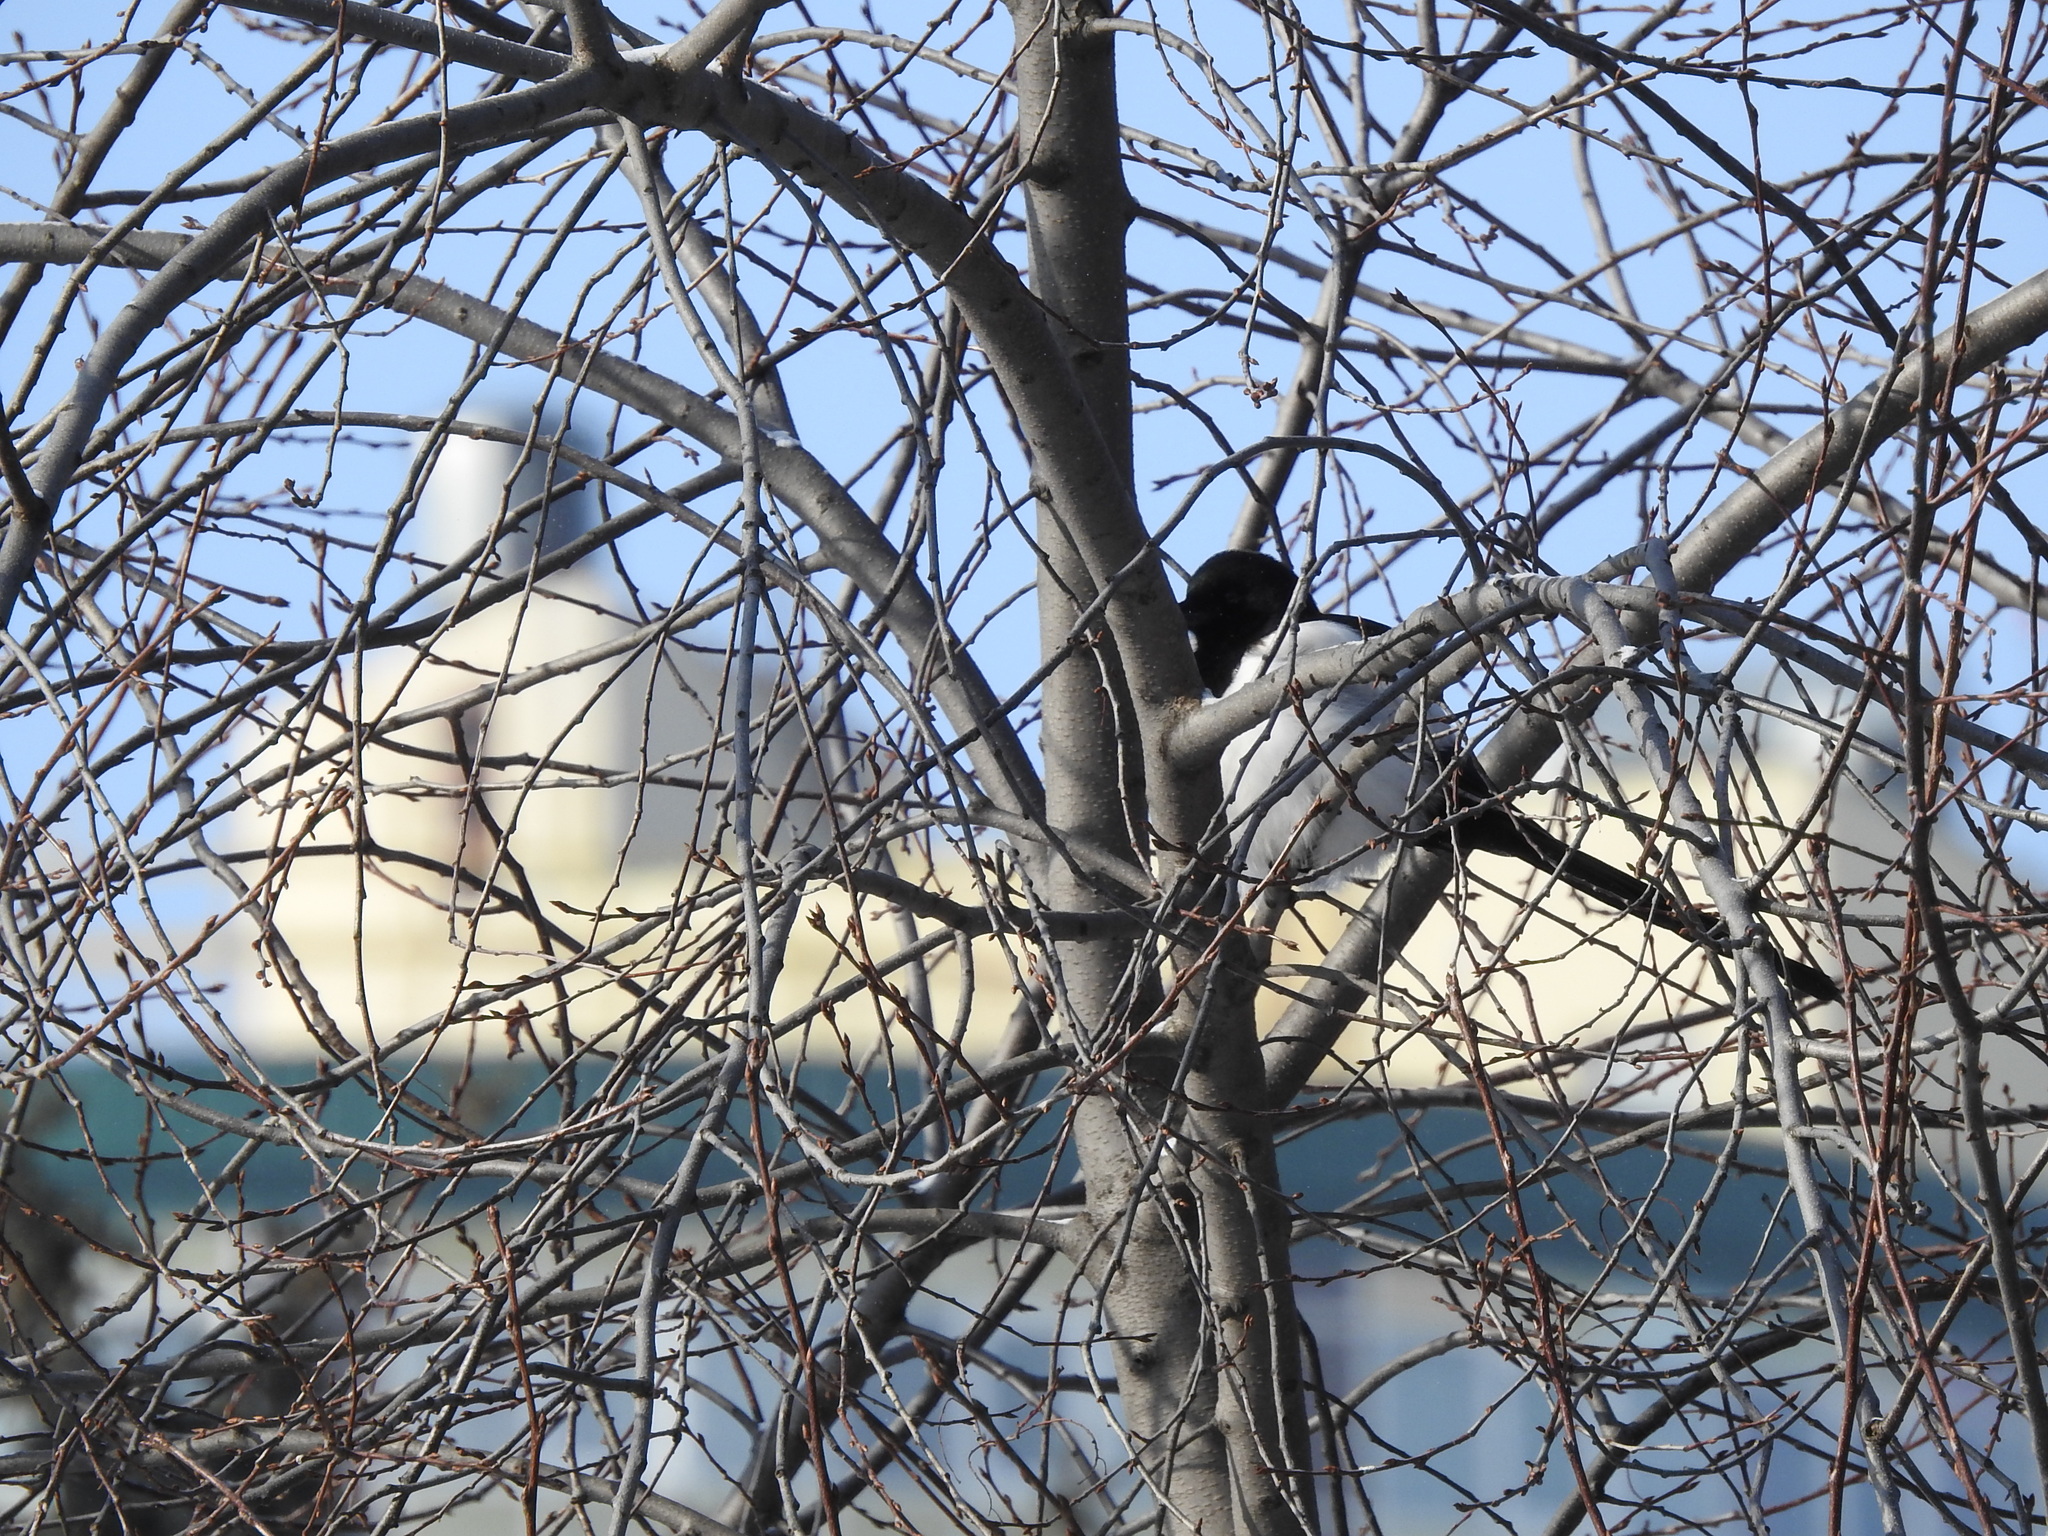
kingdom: Animalia
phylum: Chordata
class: Aves
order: Passeriformes
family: Corvidae
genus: Pica
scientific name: Pica pica
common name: Eurasian magpie
